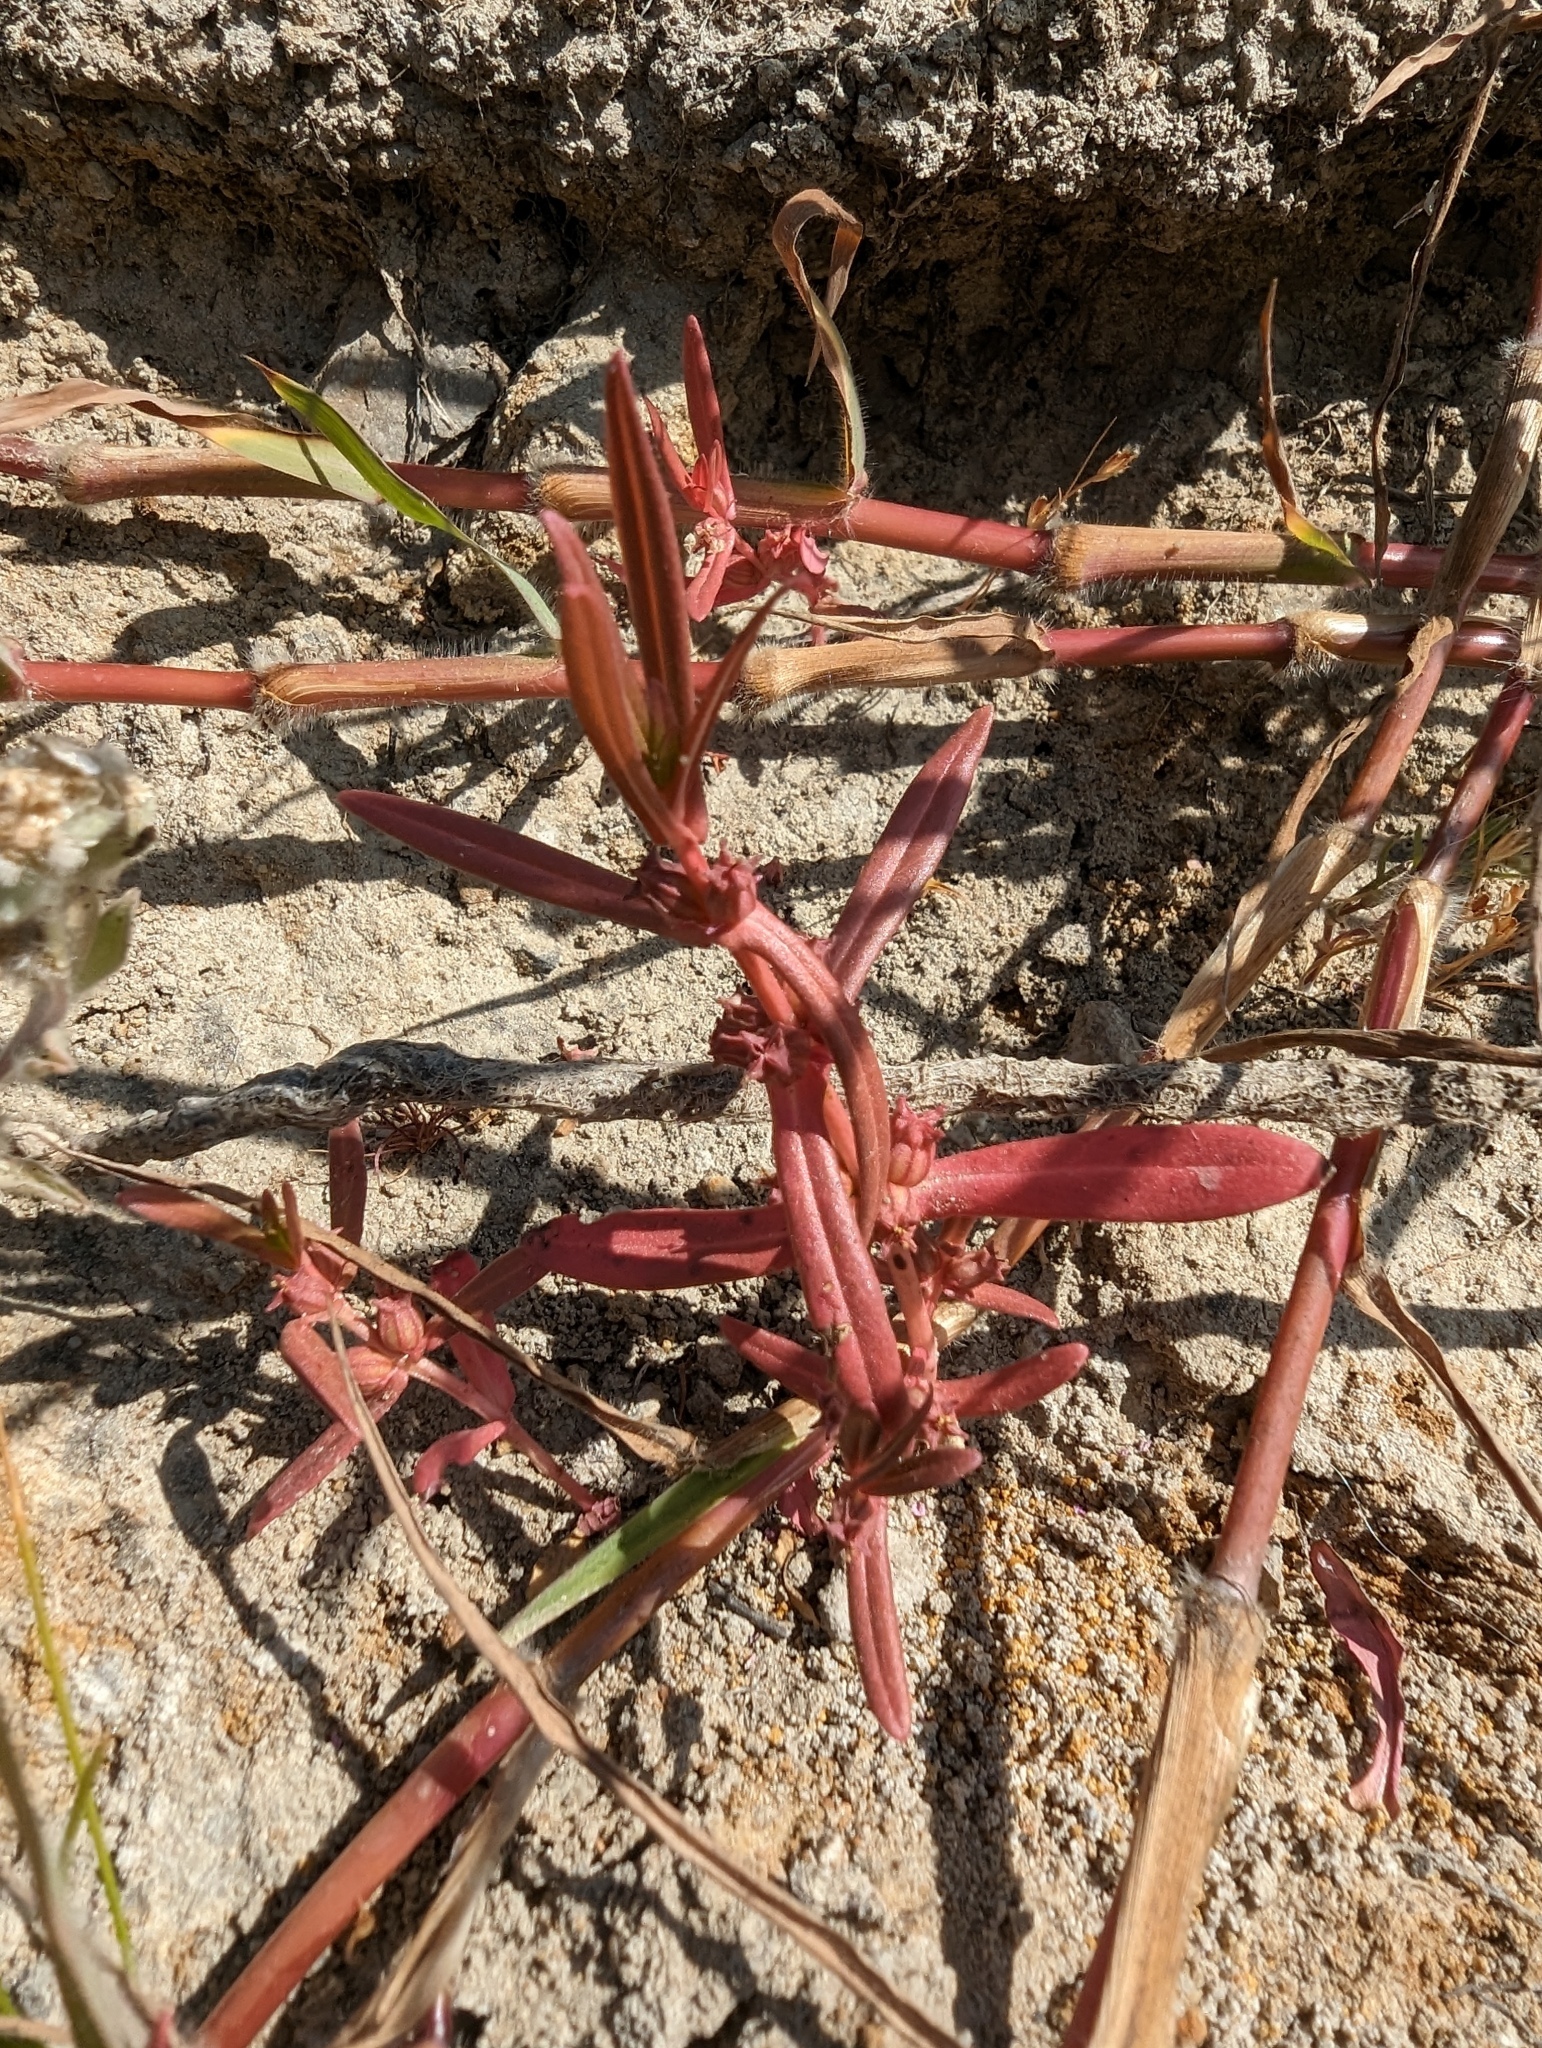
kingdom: Plantae
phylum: Tracheophyta
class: Magnoliopsida
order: Myrtales
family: Lythraceae
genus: Ammannia
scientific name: Ammannia robusta
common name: Grand ammannia
